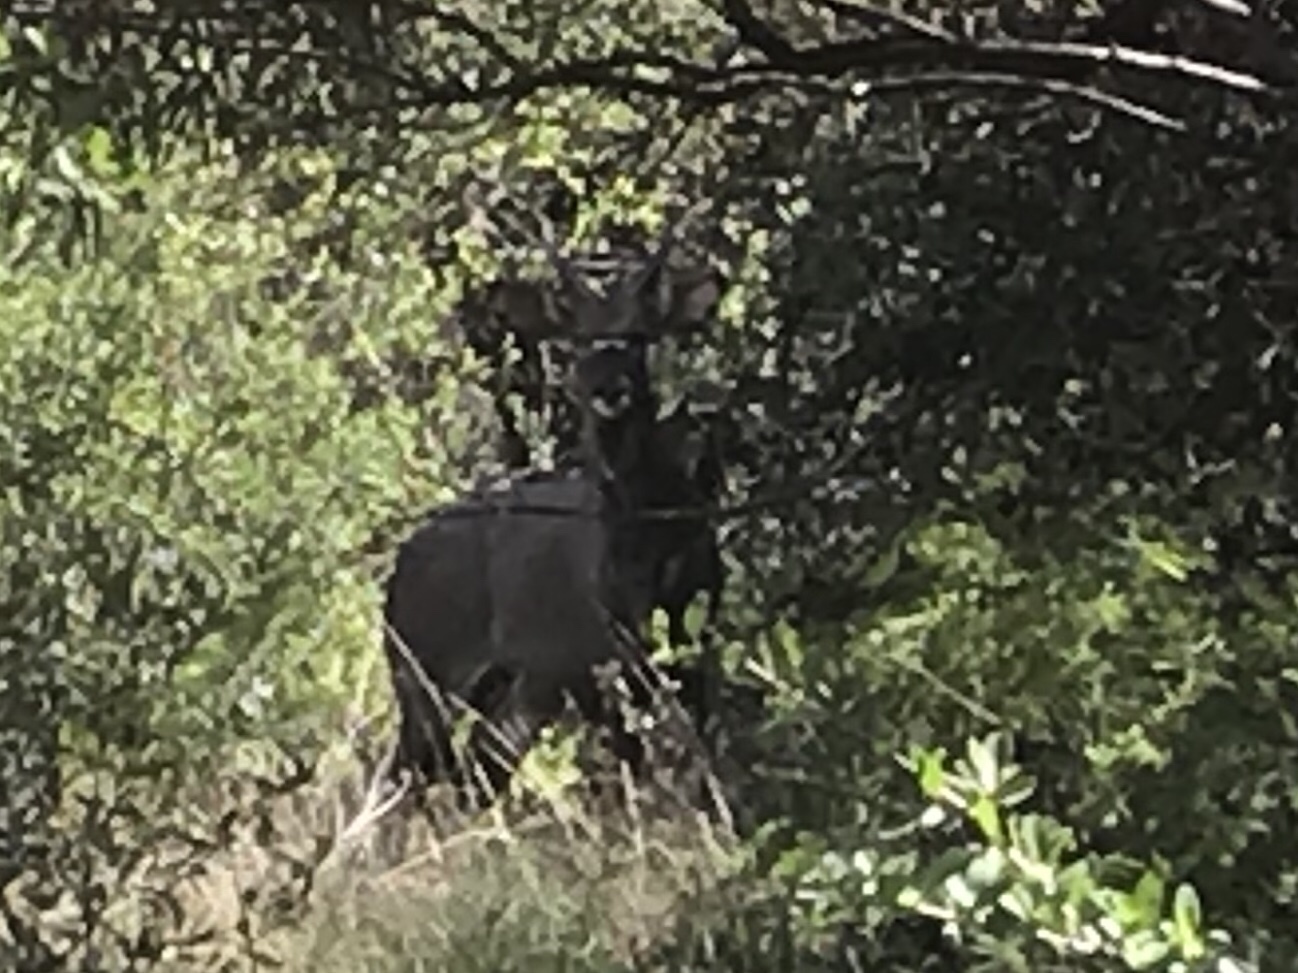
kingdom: Animalia
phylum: Chordata
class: Mammalia
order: Artiodactyla
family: Bovidae
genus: Tragelaphus
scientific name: Tragelaphus angasii
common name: Nyala
